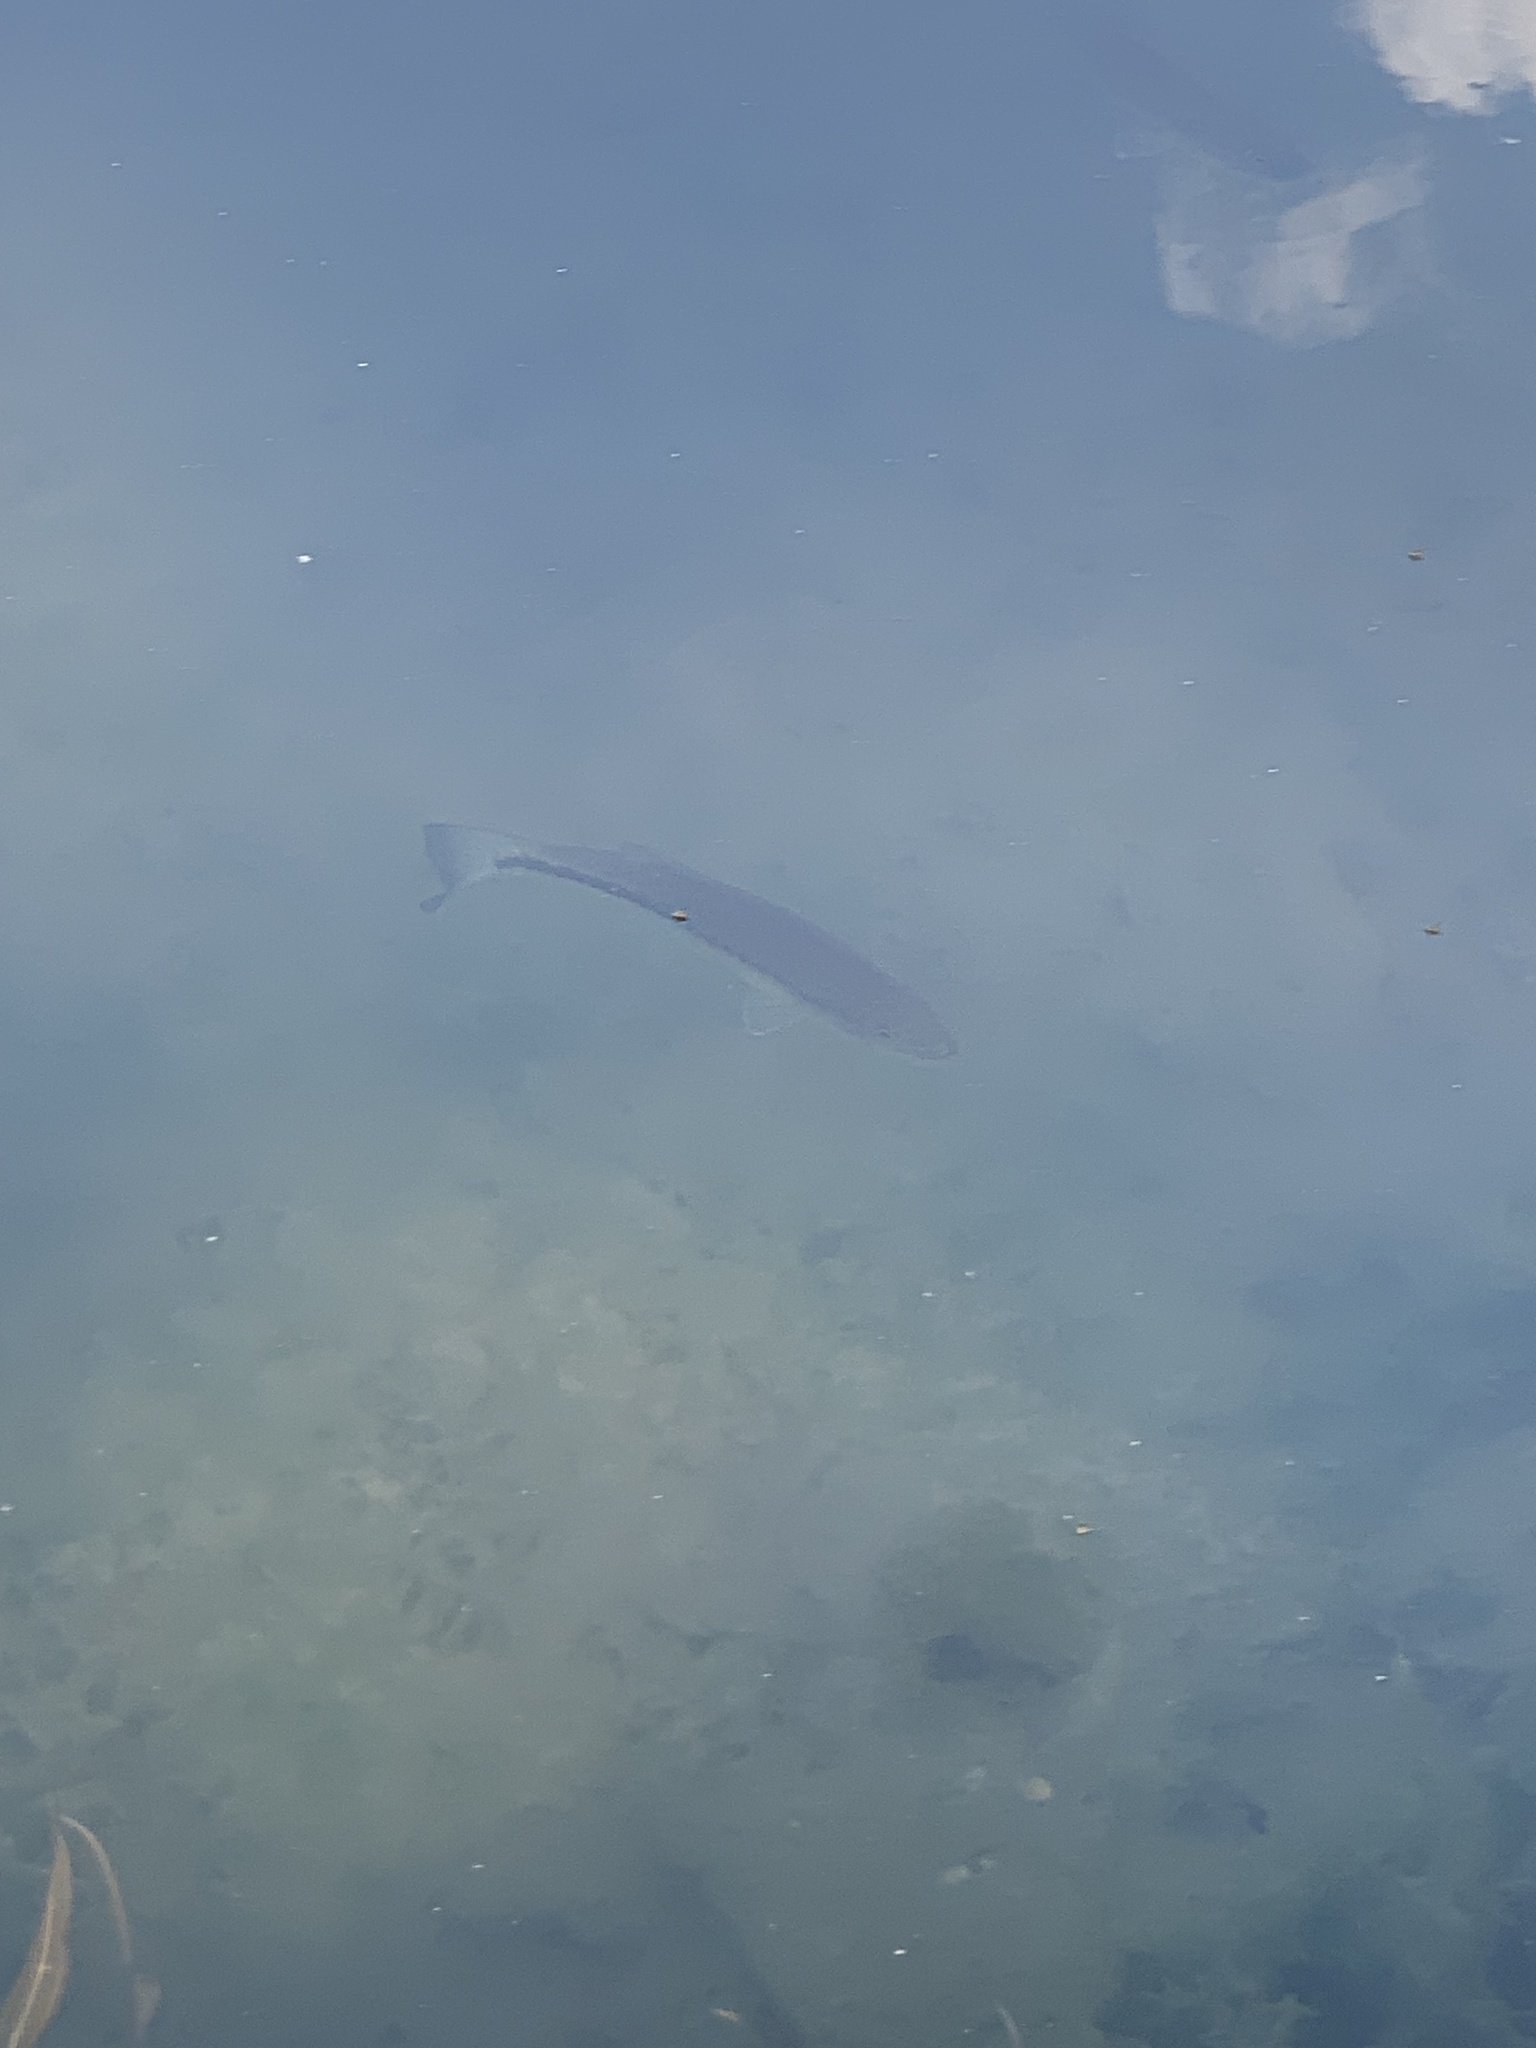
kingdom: Animalia
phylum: Chordata
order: Perciformes
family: Centrarchidae
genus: Micropterus
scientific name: Micropterus
